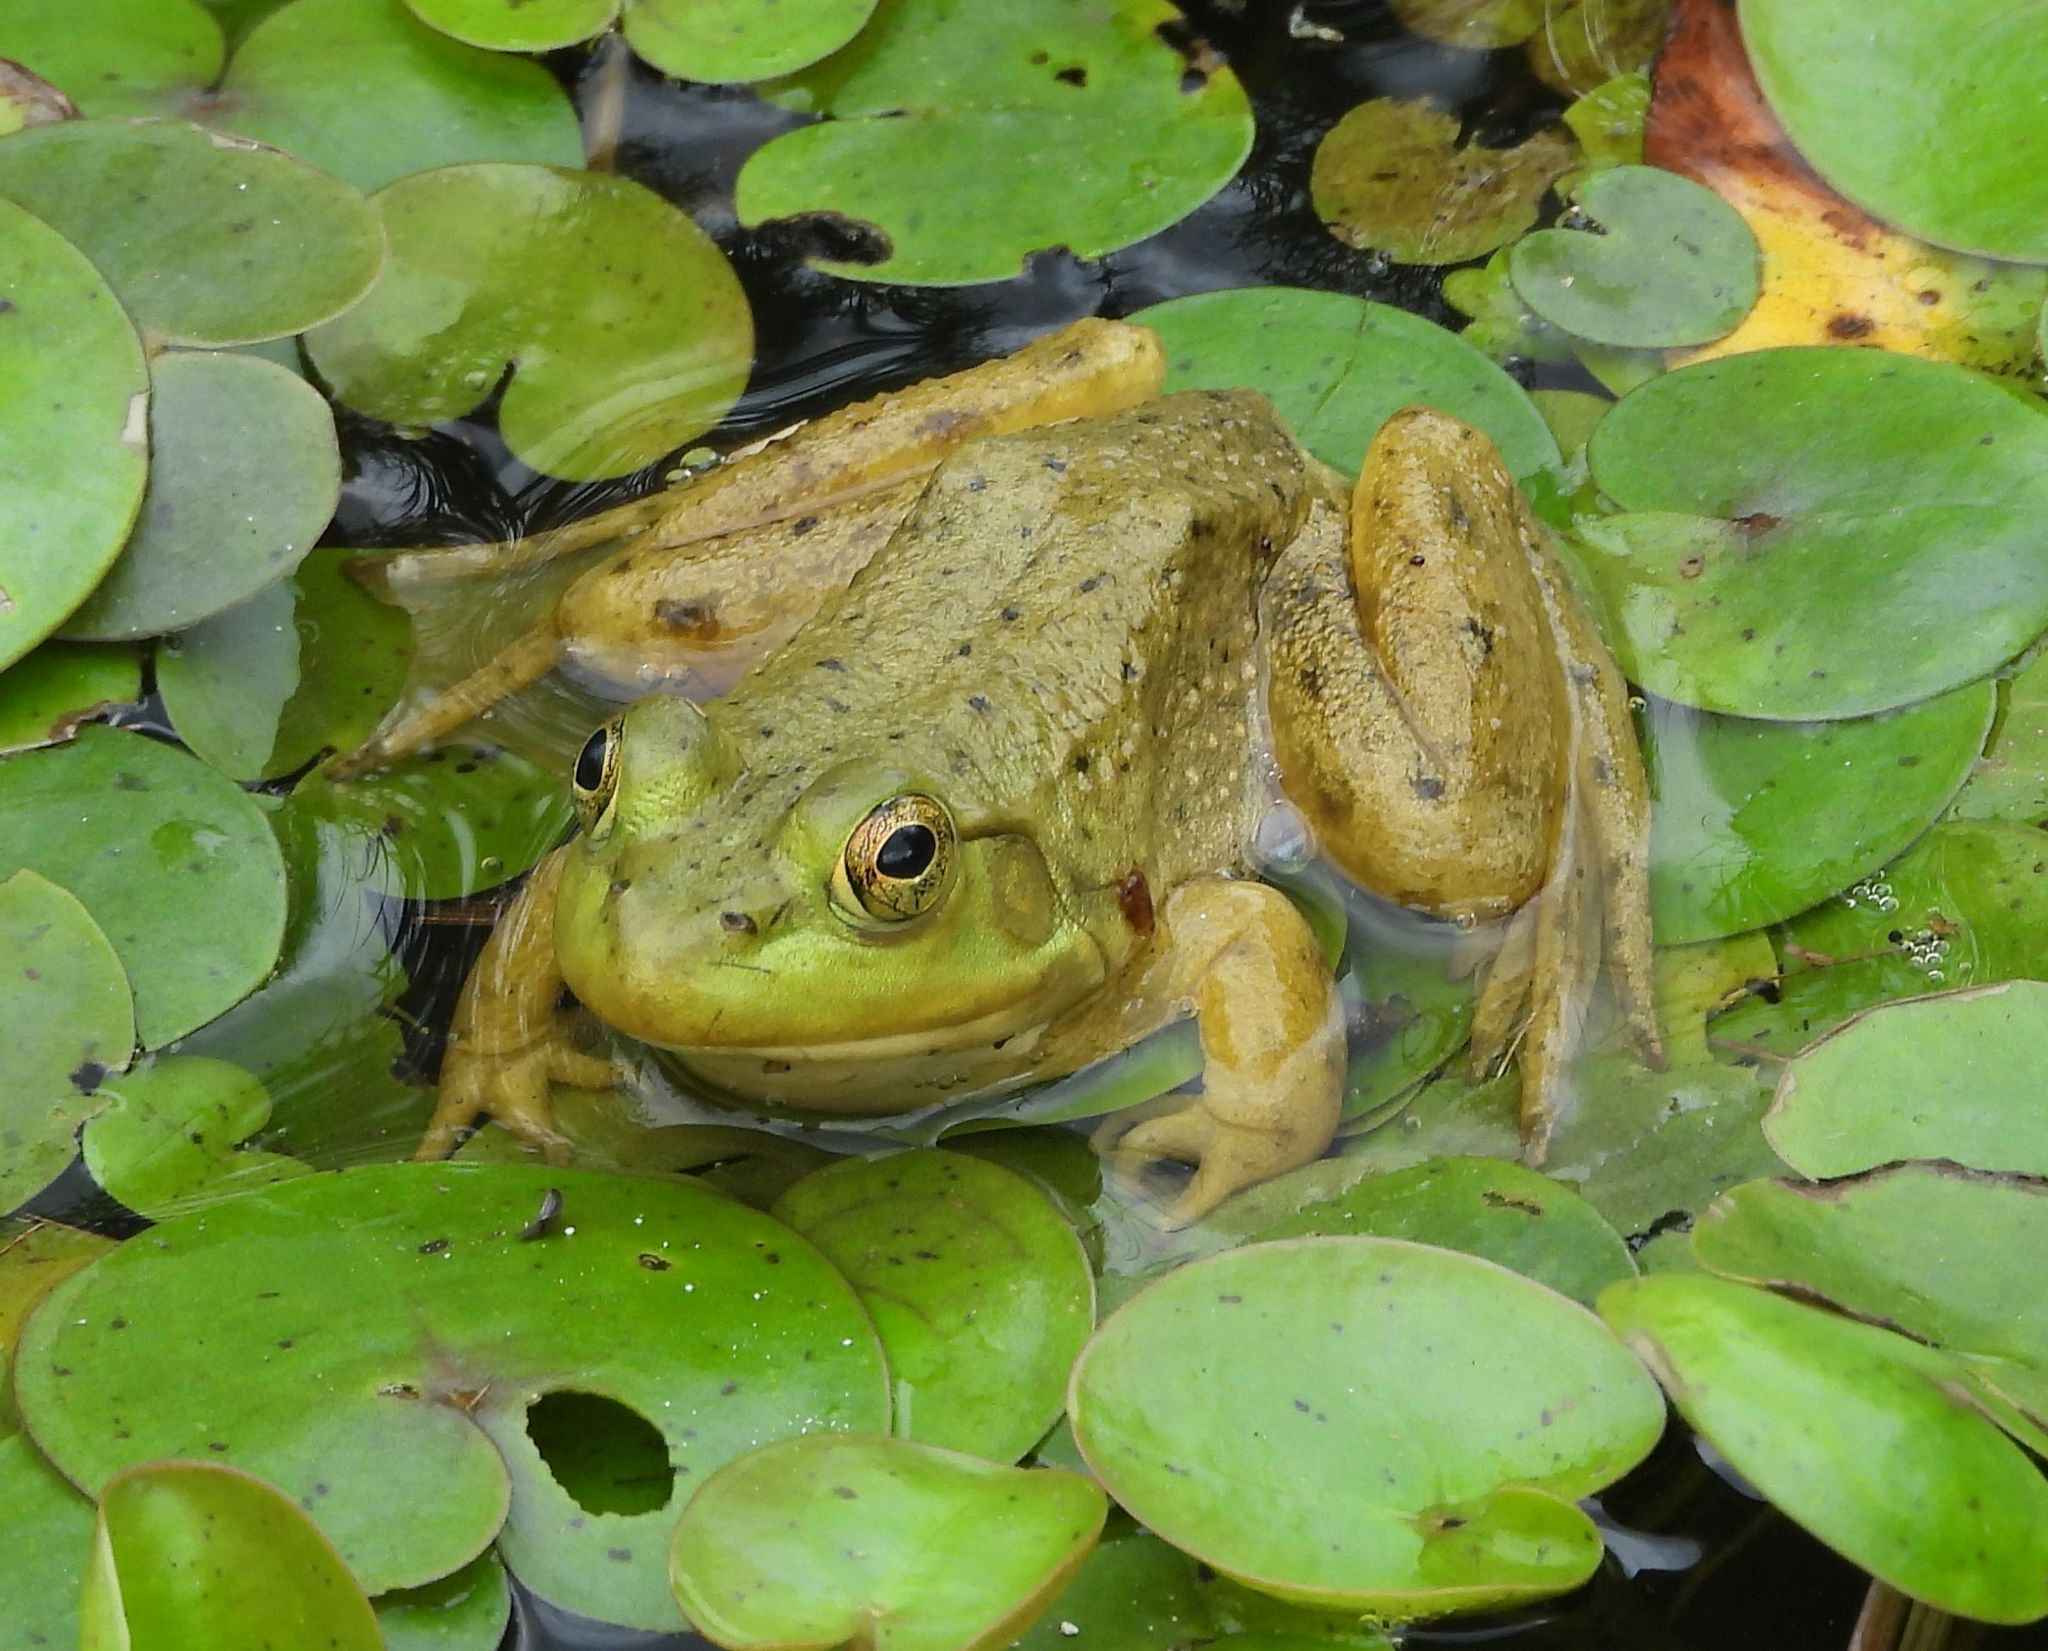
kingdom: Animalia
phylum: Chordata
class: Amphibia
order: Anura
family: Ranidae
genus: Lithobates
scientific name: Lithobates catesbeianus
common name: American bullfrog
